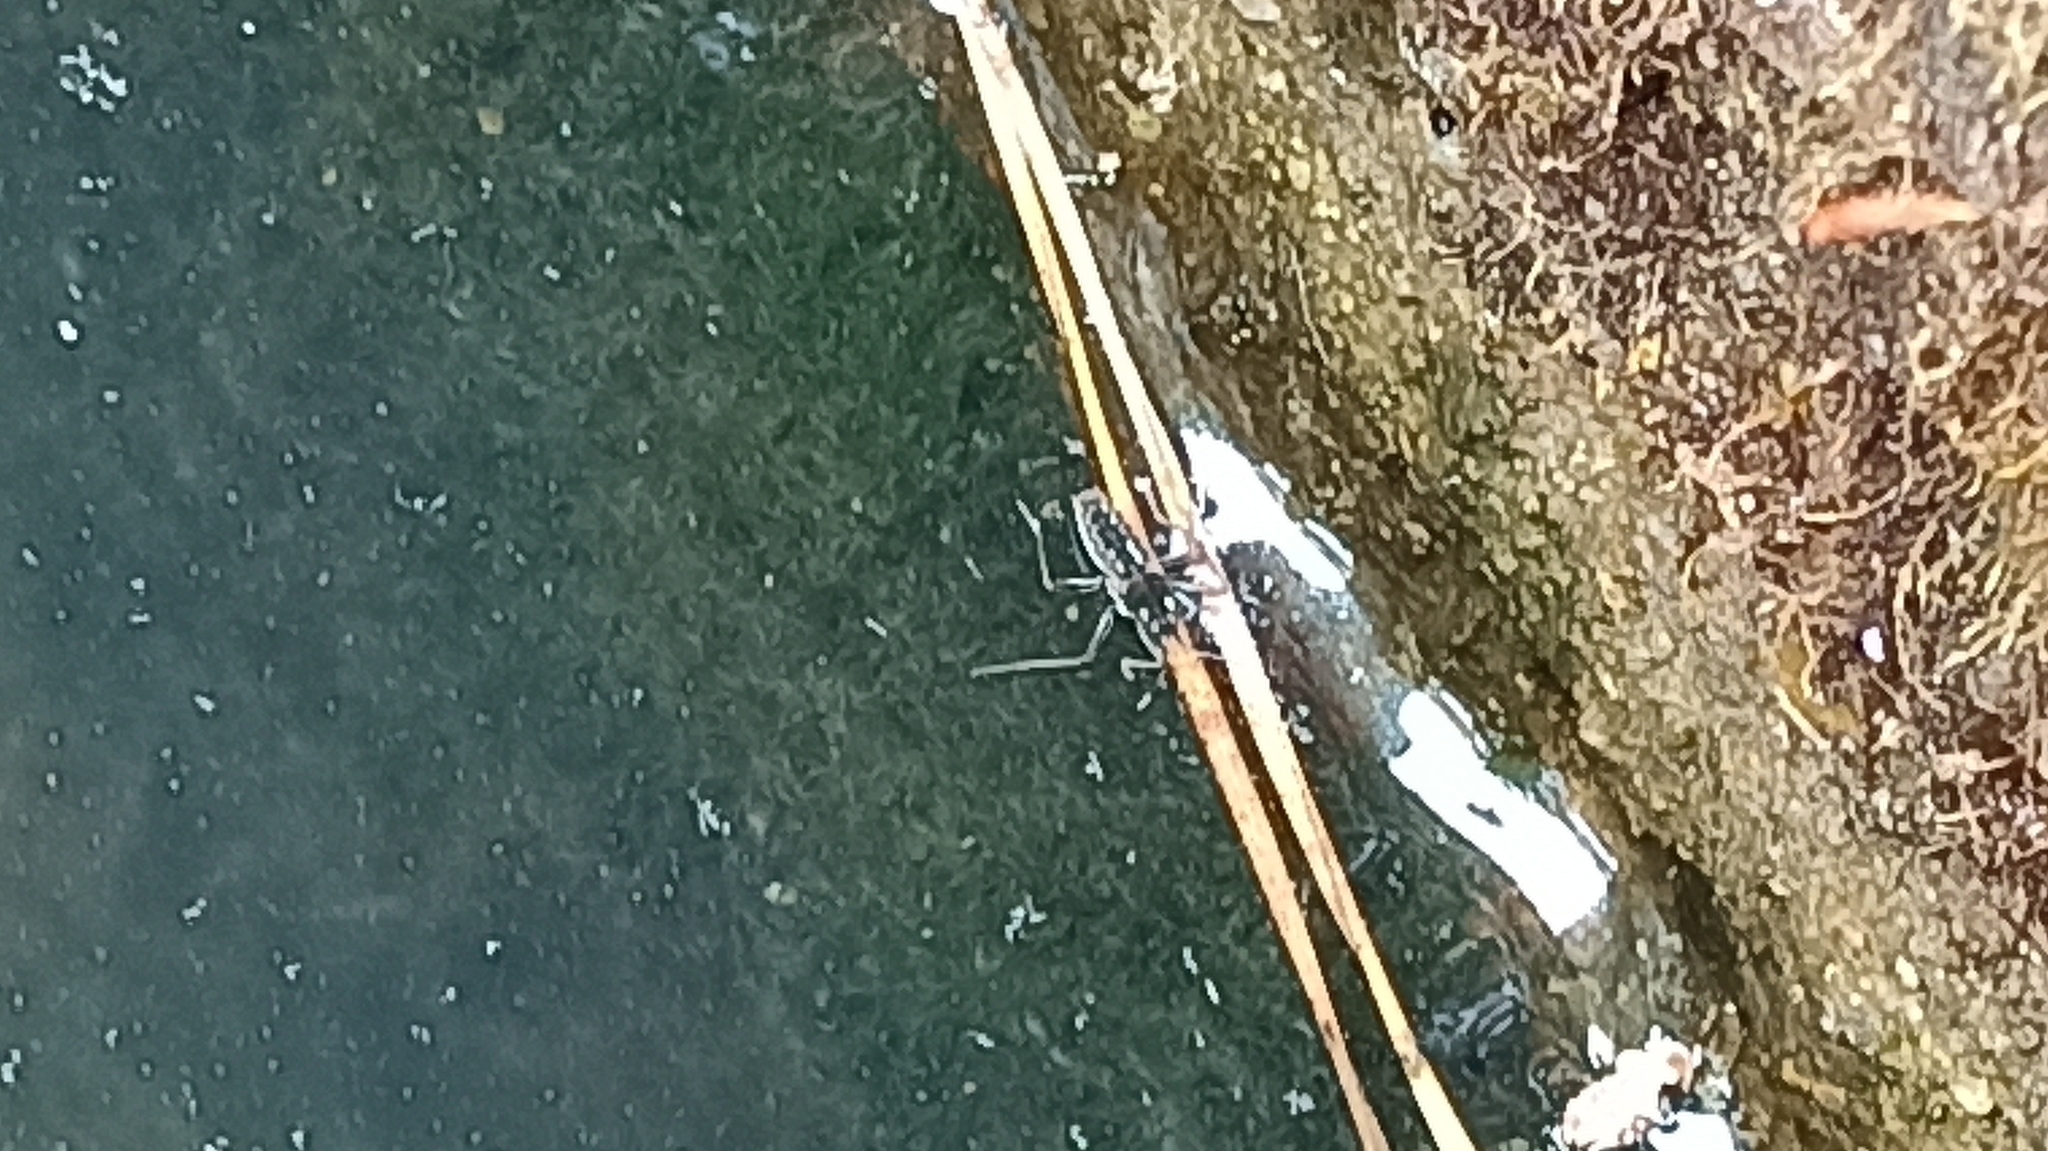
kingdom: Animalia
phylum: Arthropoda
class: Insecta
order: Hemiptera
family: Veliidae
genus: Velia
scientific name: Velia
